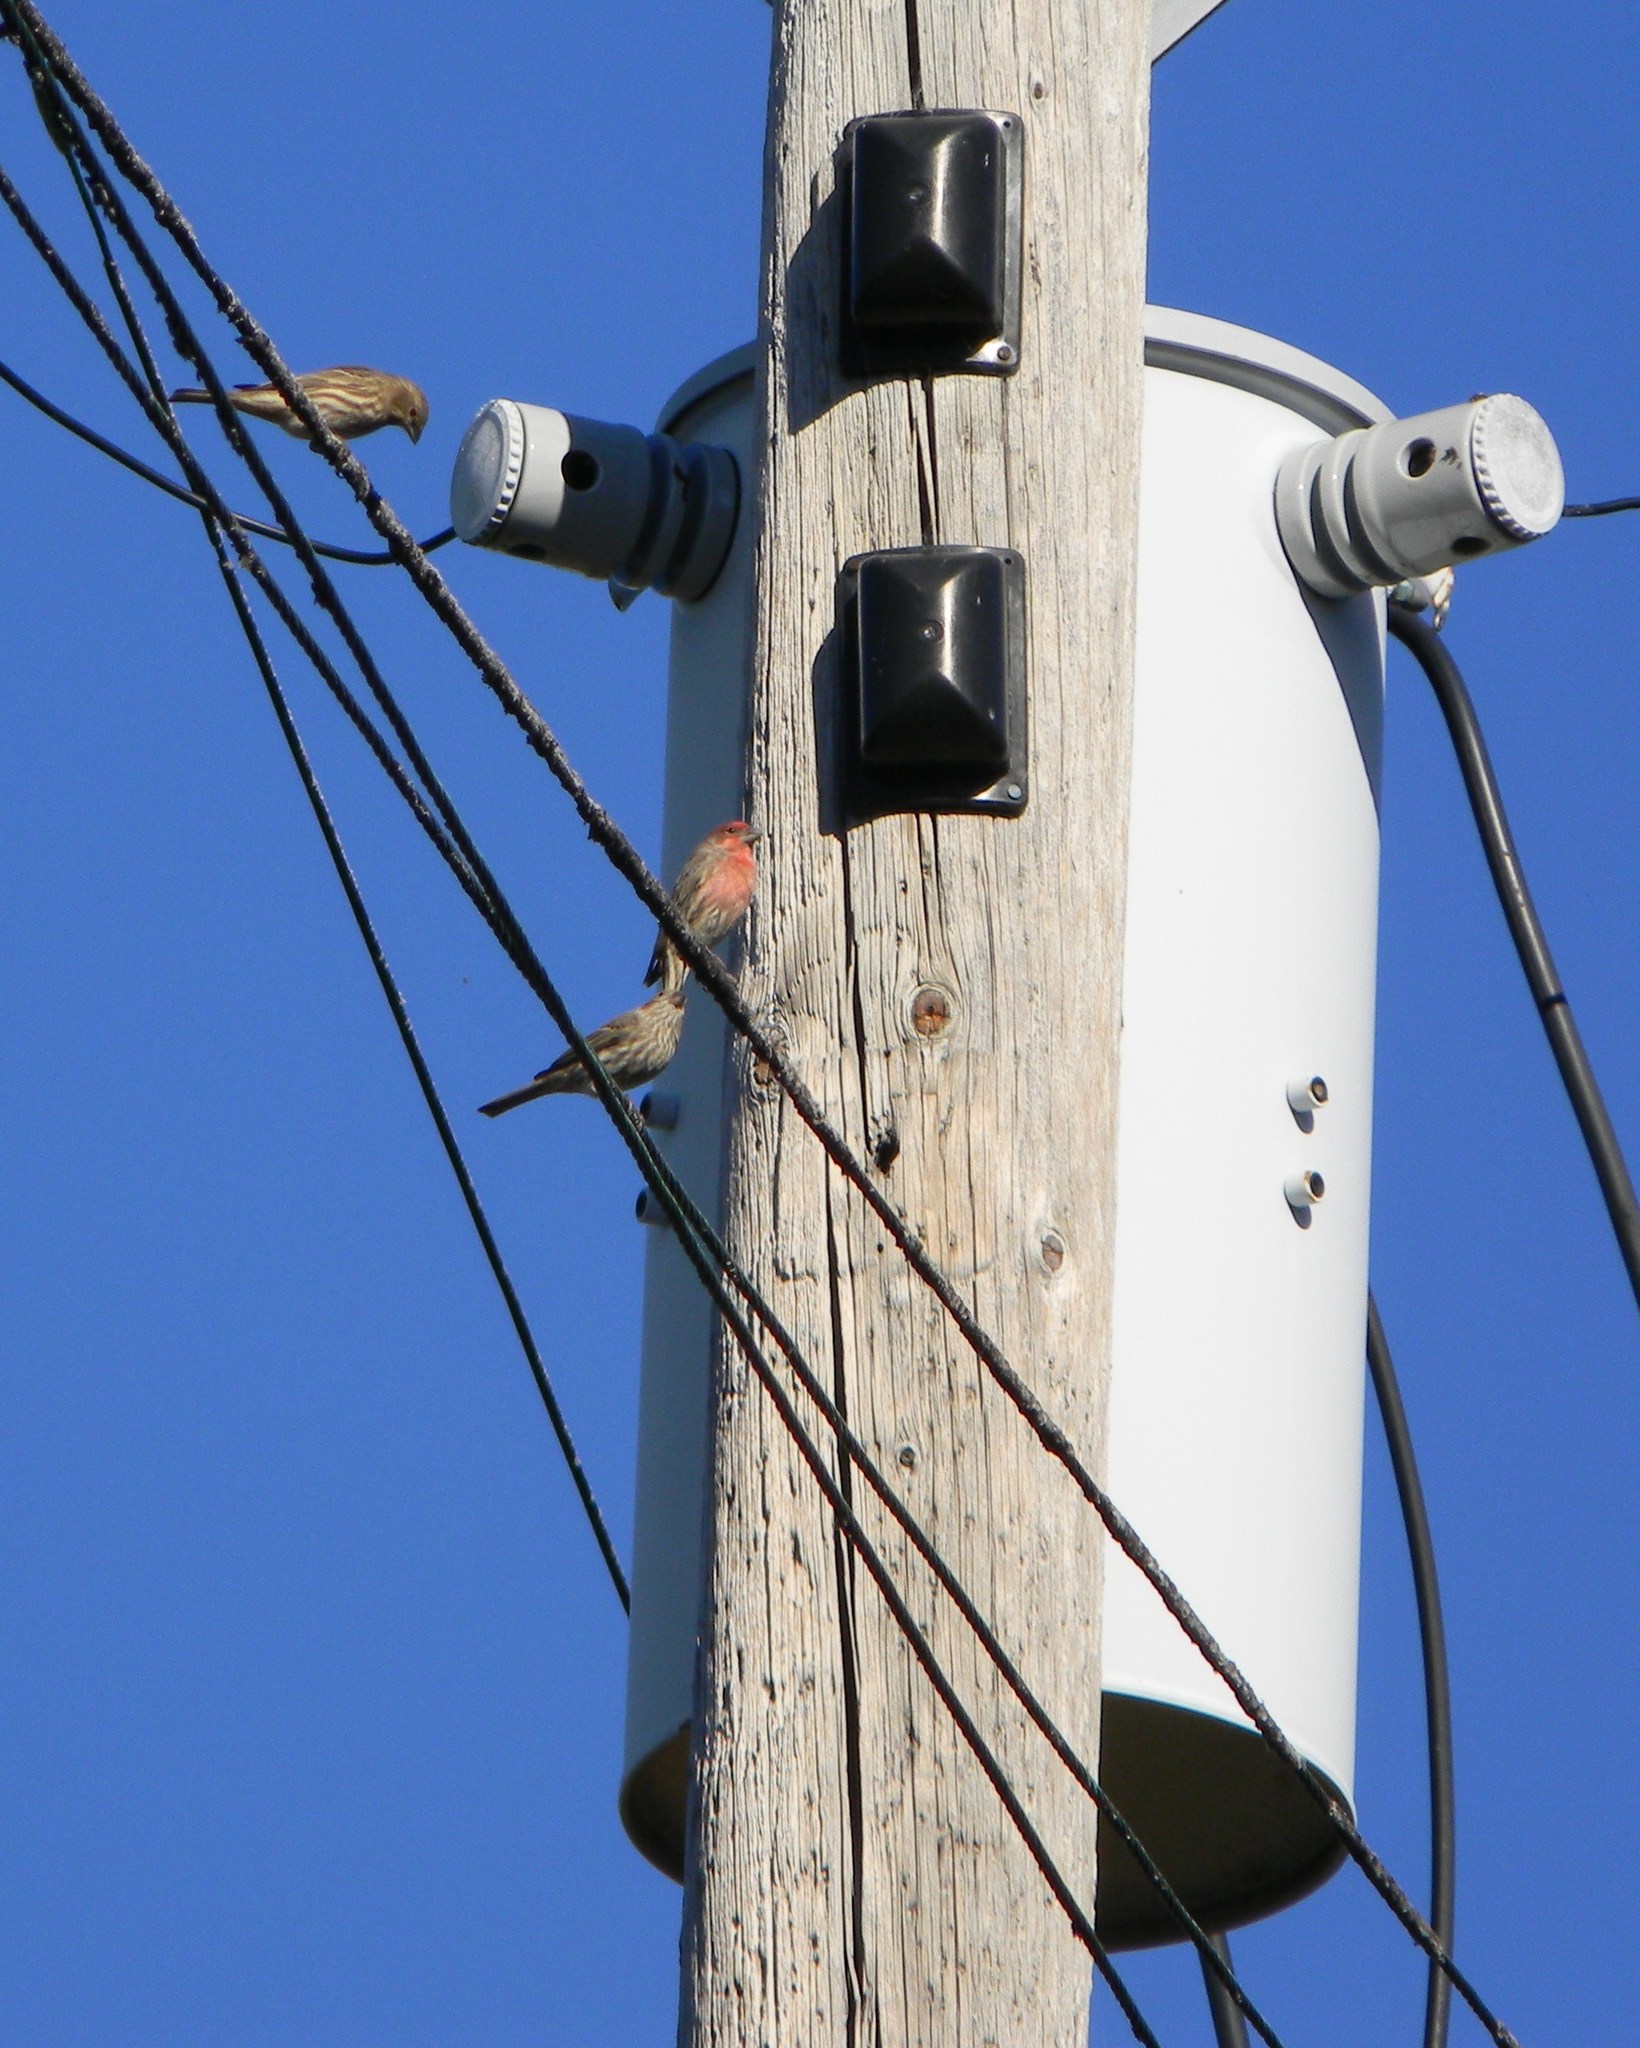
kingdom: Animalia
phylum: Chordata
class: Aves
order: Passeriformes
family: Fringillidae
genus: Haemorhous
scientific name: Haemorhous mexicanus
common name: House finch
